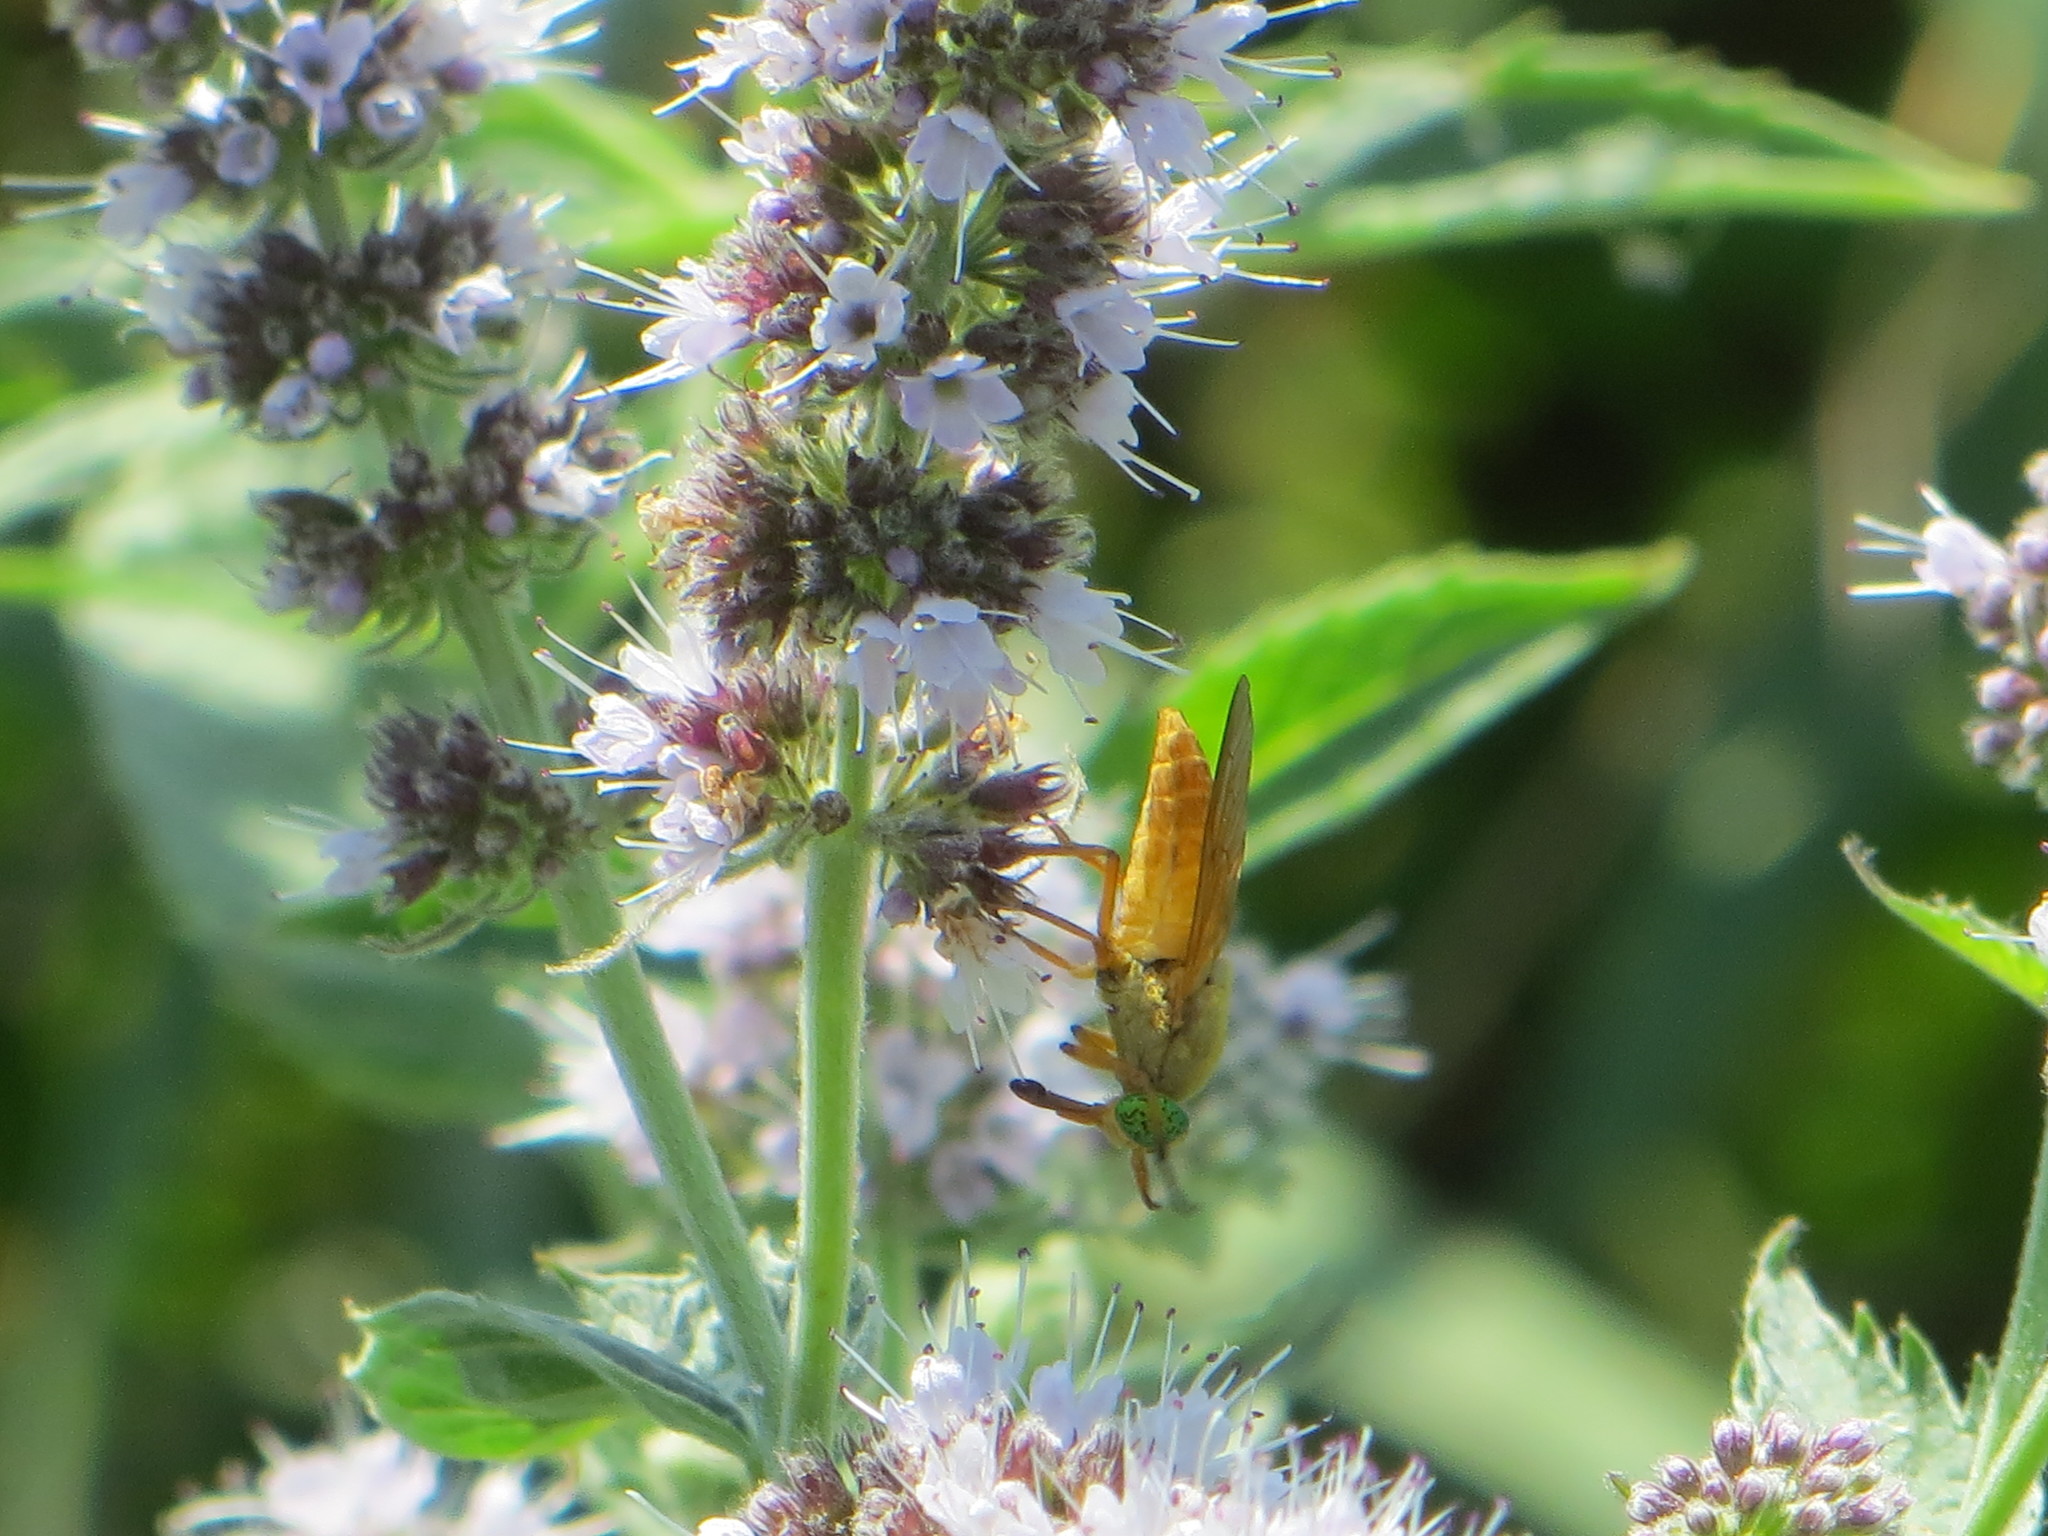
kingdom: Animalia
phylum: Arthropoda
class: Insecta
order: Diptera
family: Tabanidae
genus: Silvius
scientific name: Silvius alpinus
